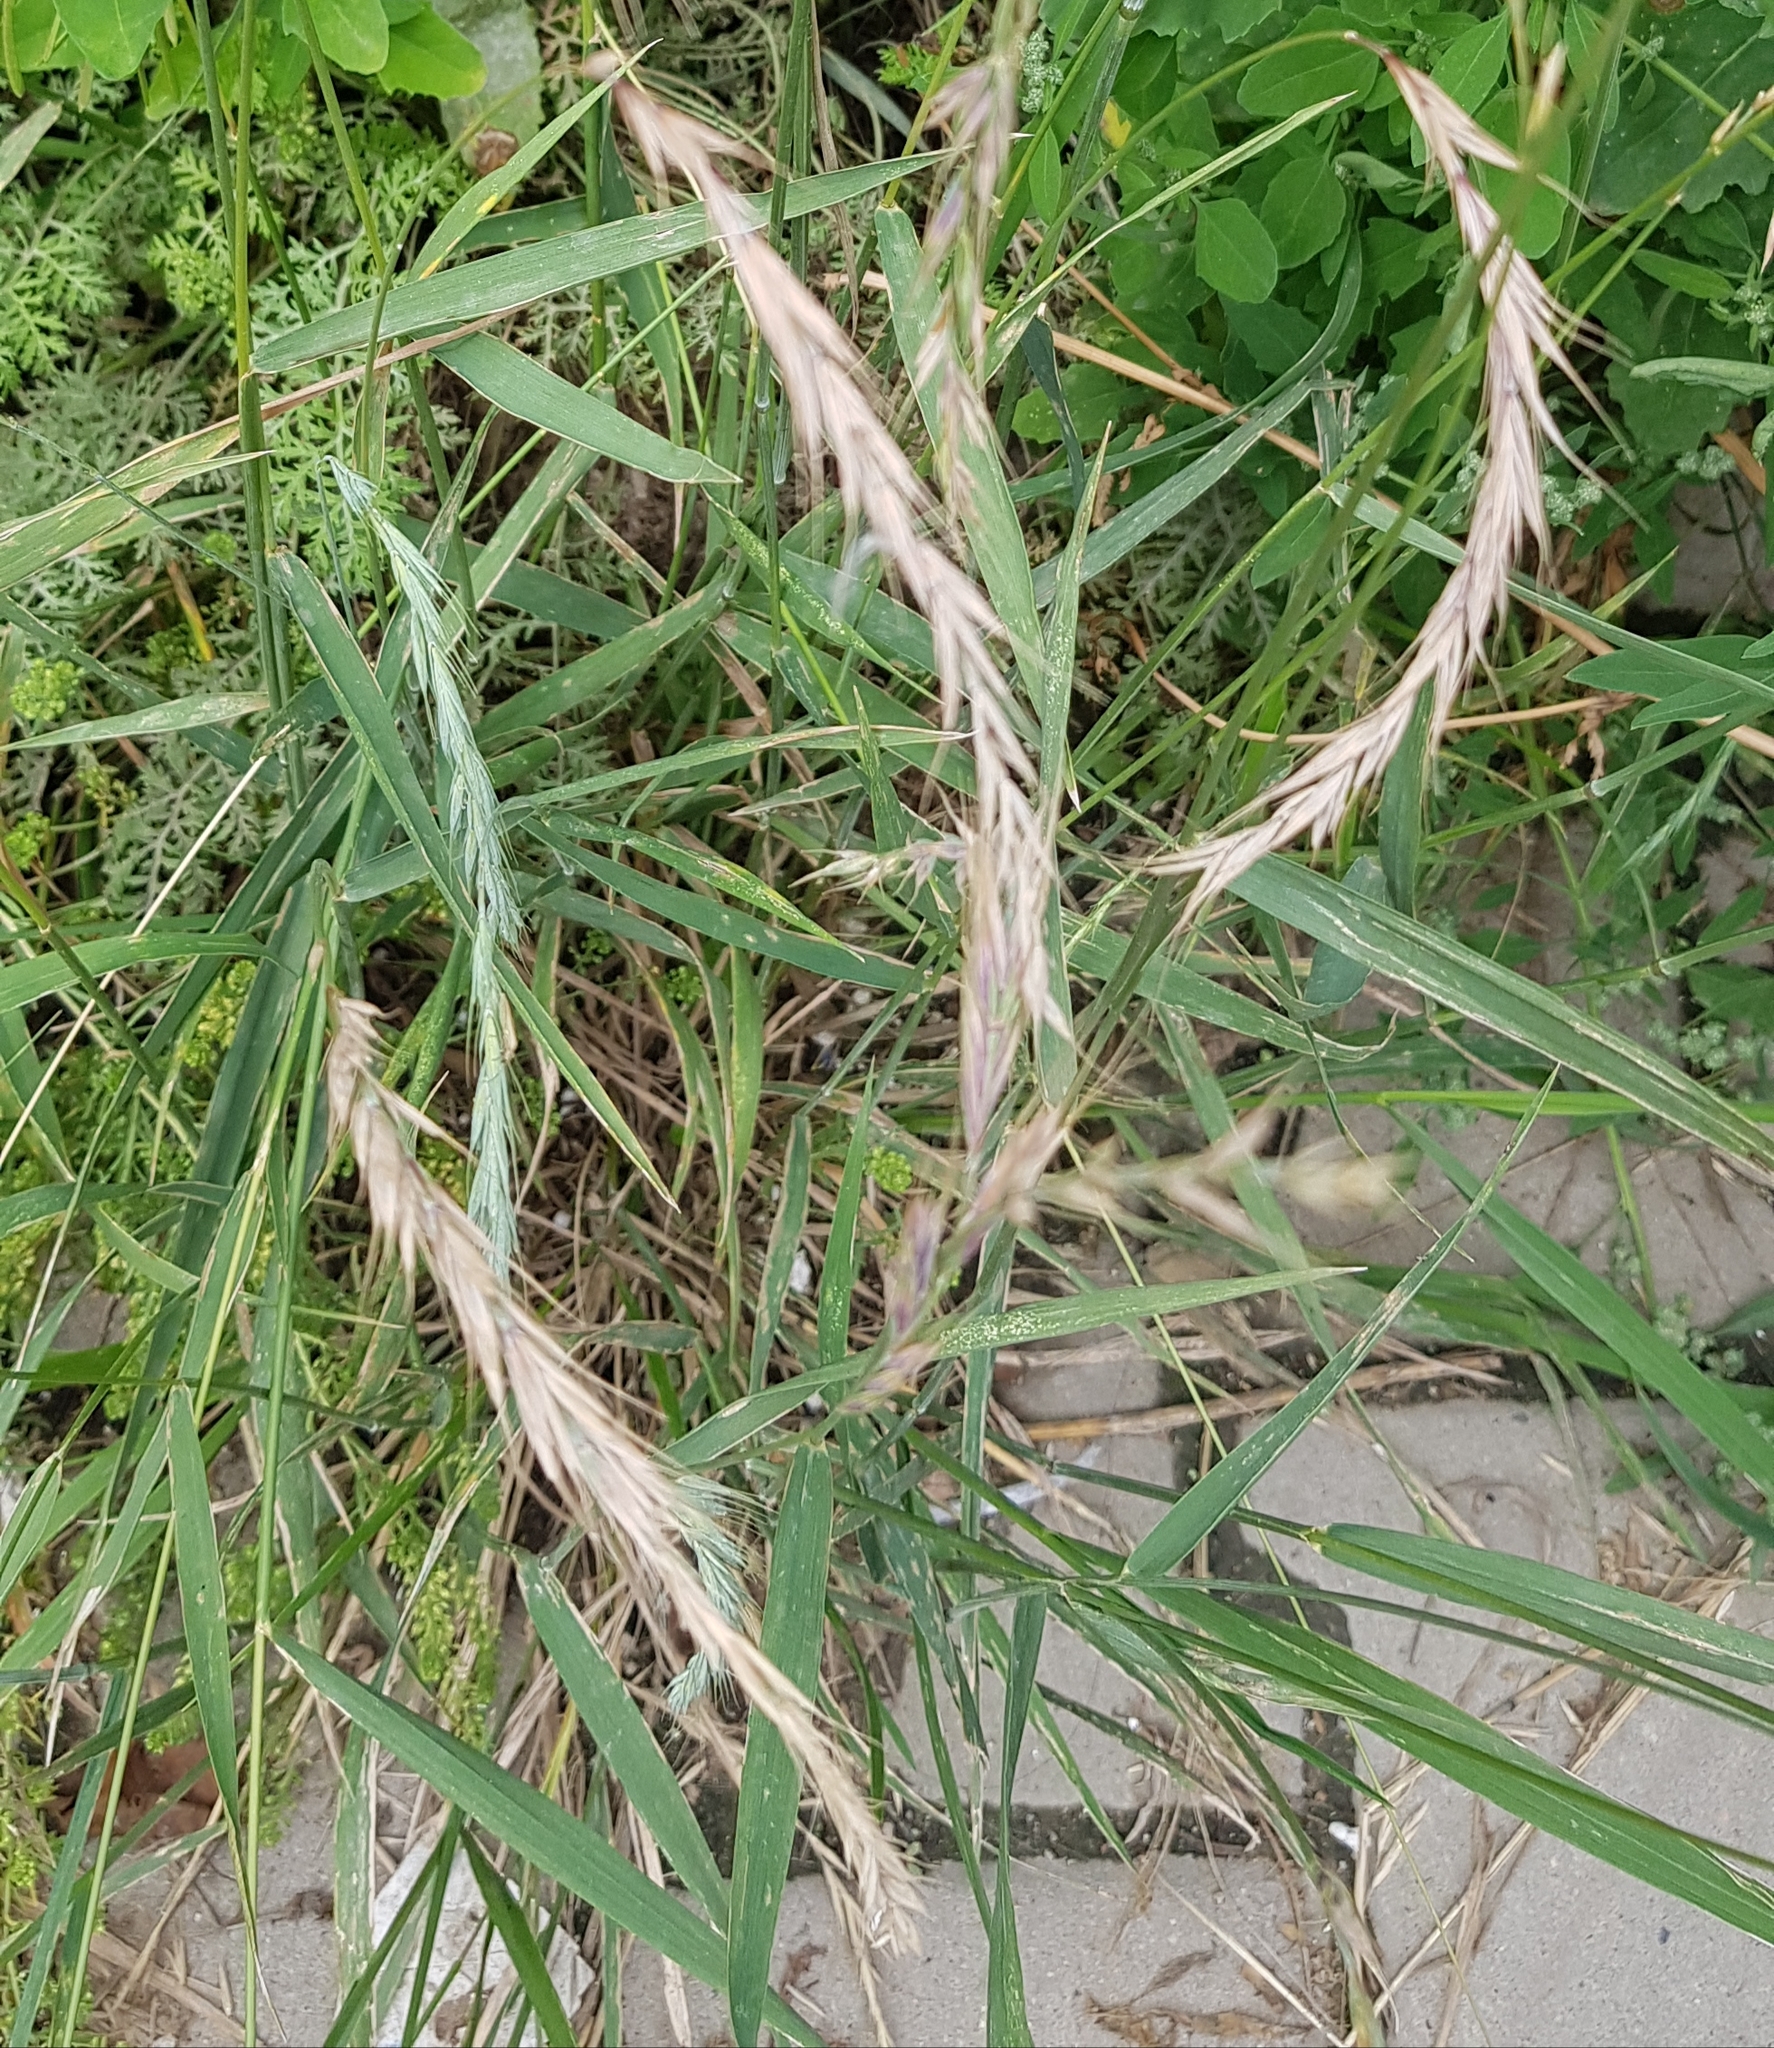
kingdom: Plantae
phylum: Tracheophyta
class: Liliopsida
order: Poales
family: Poaceae
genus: Elymus
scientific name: Elymus sibiricus
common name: Siberian wildrye
